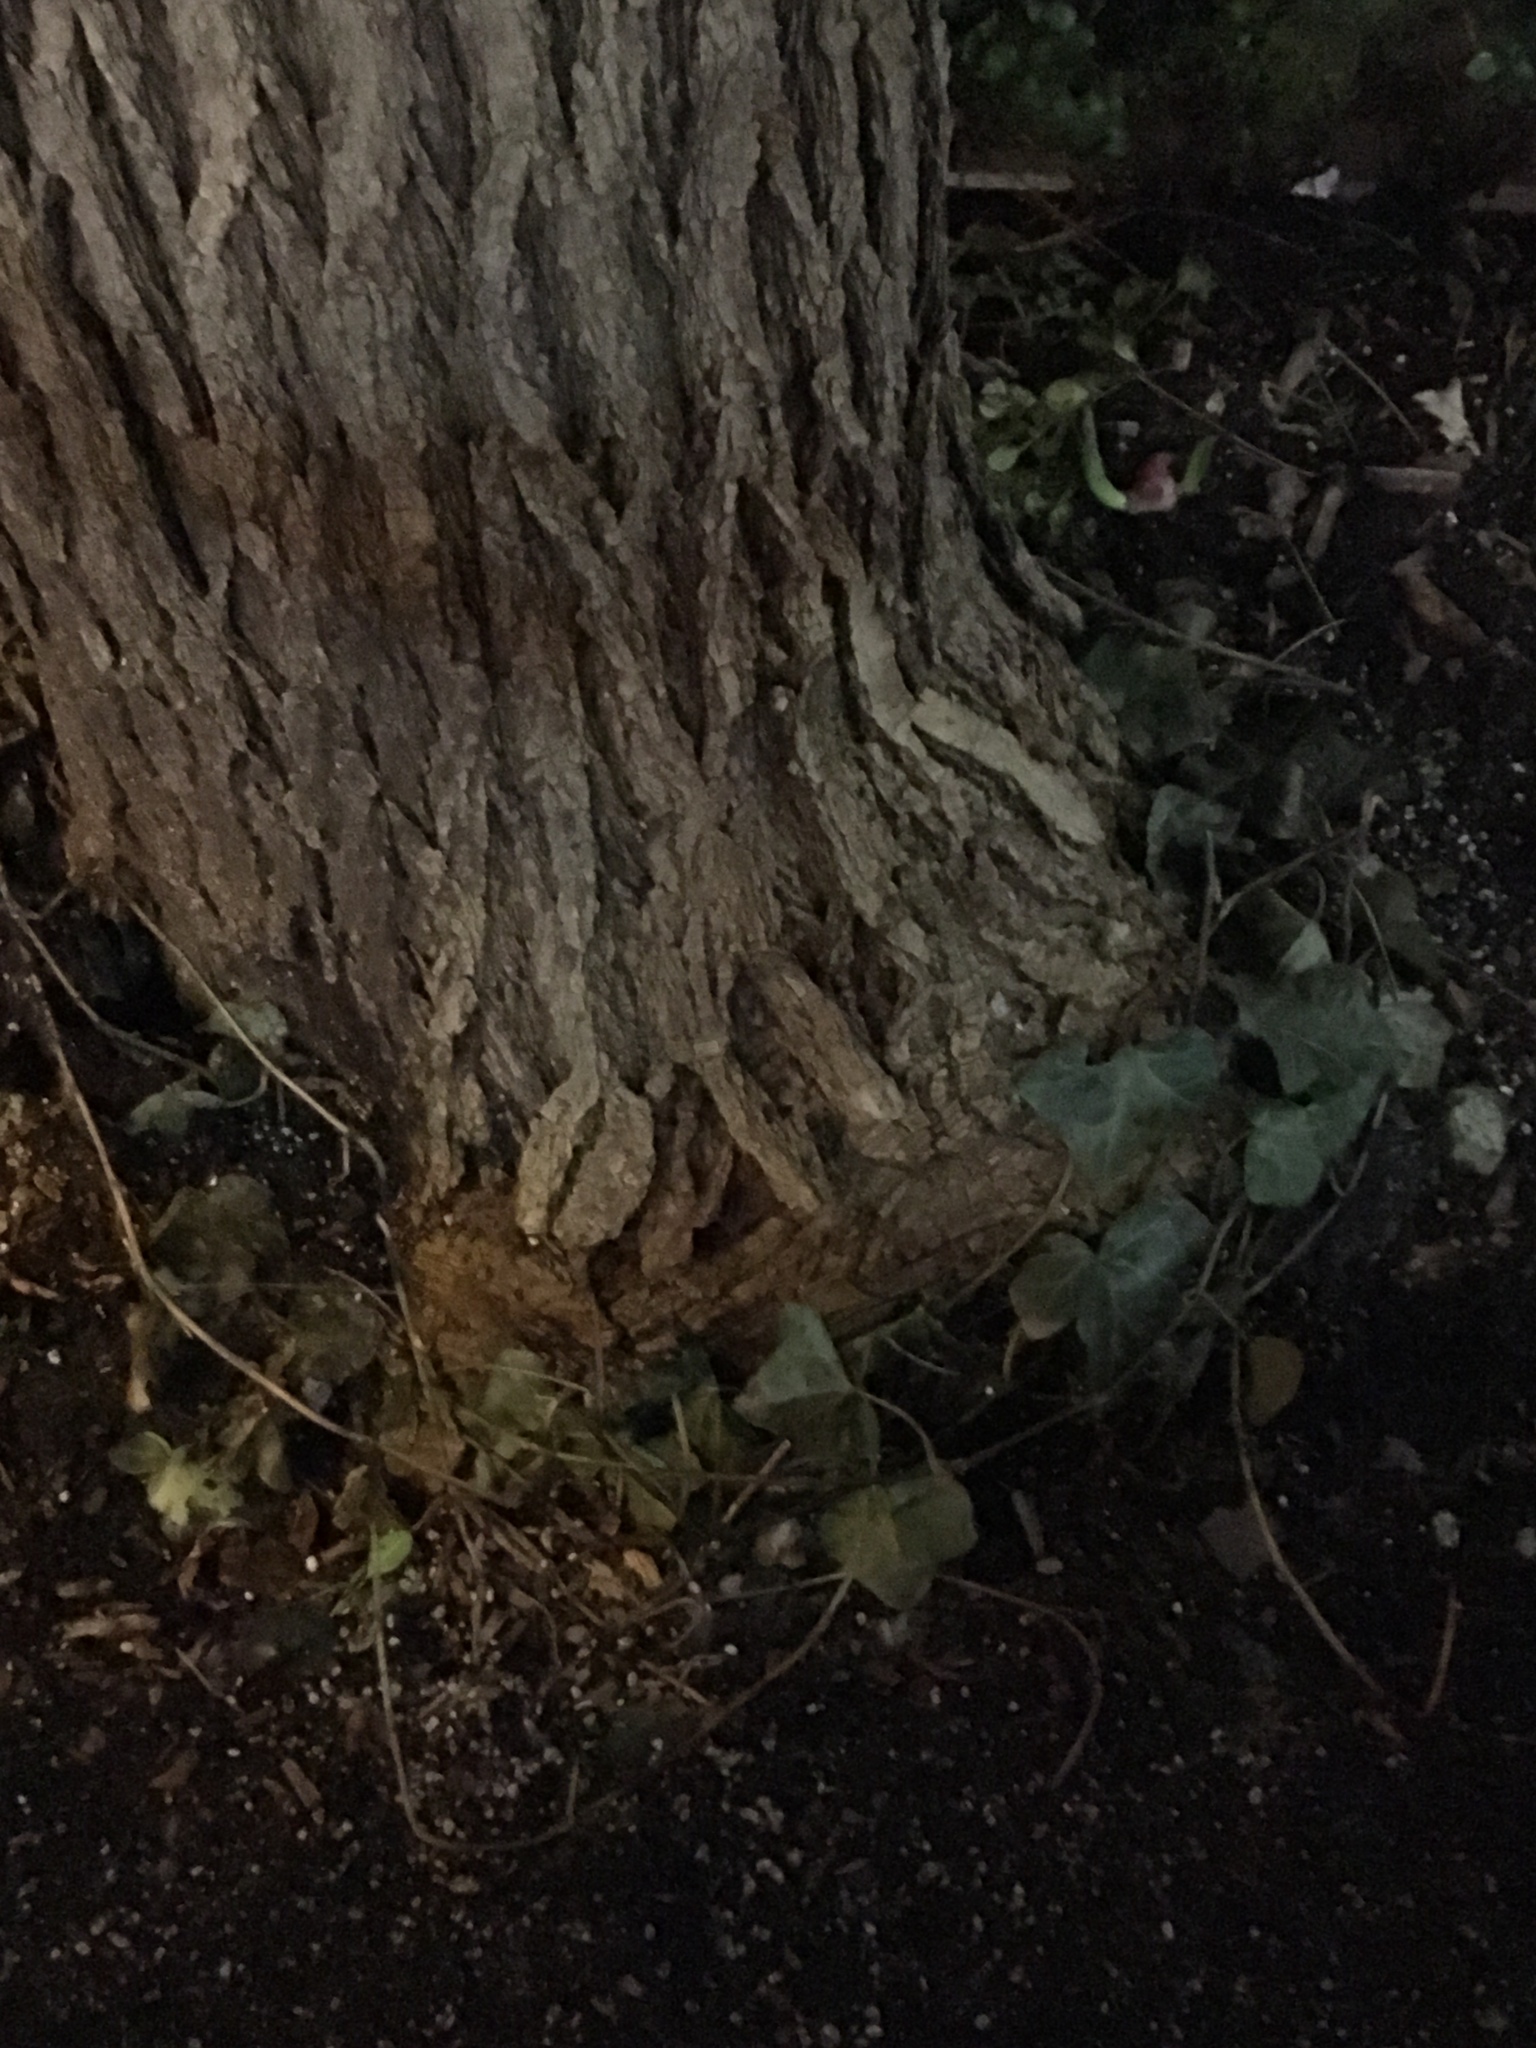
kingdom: Plantae
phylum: Tracheophyta
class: Magnoliopsida
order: Apiales
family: Araliaceae
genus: Hedera
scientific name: Hedera helix
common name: Ivy
